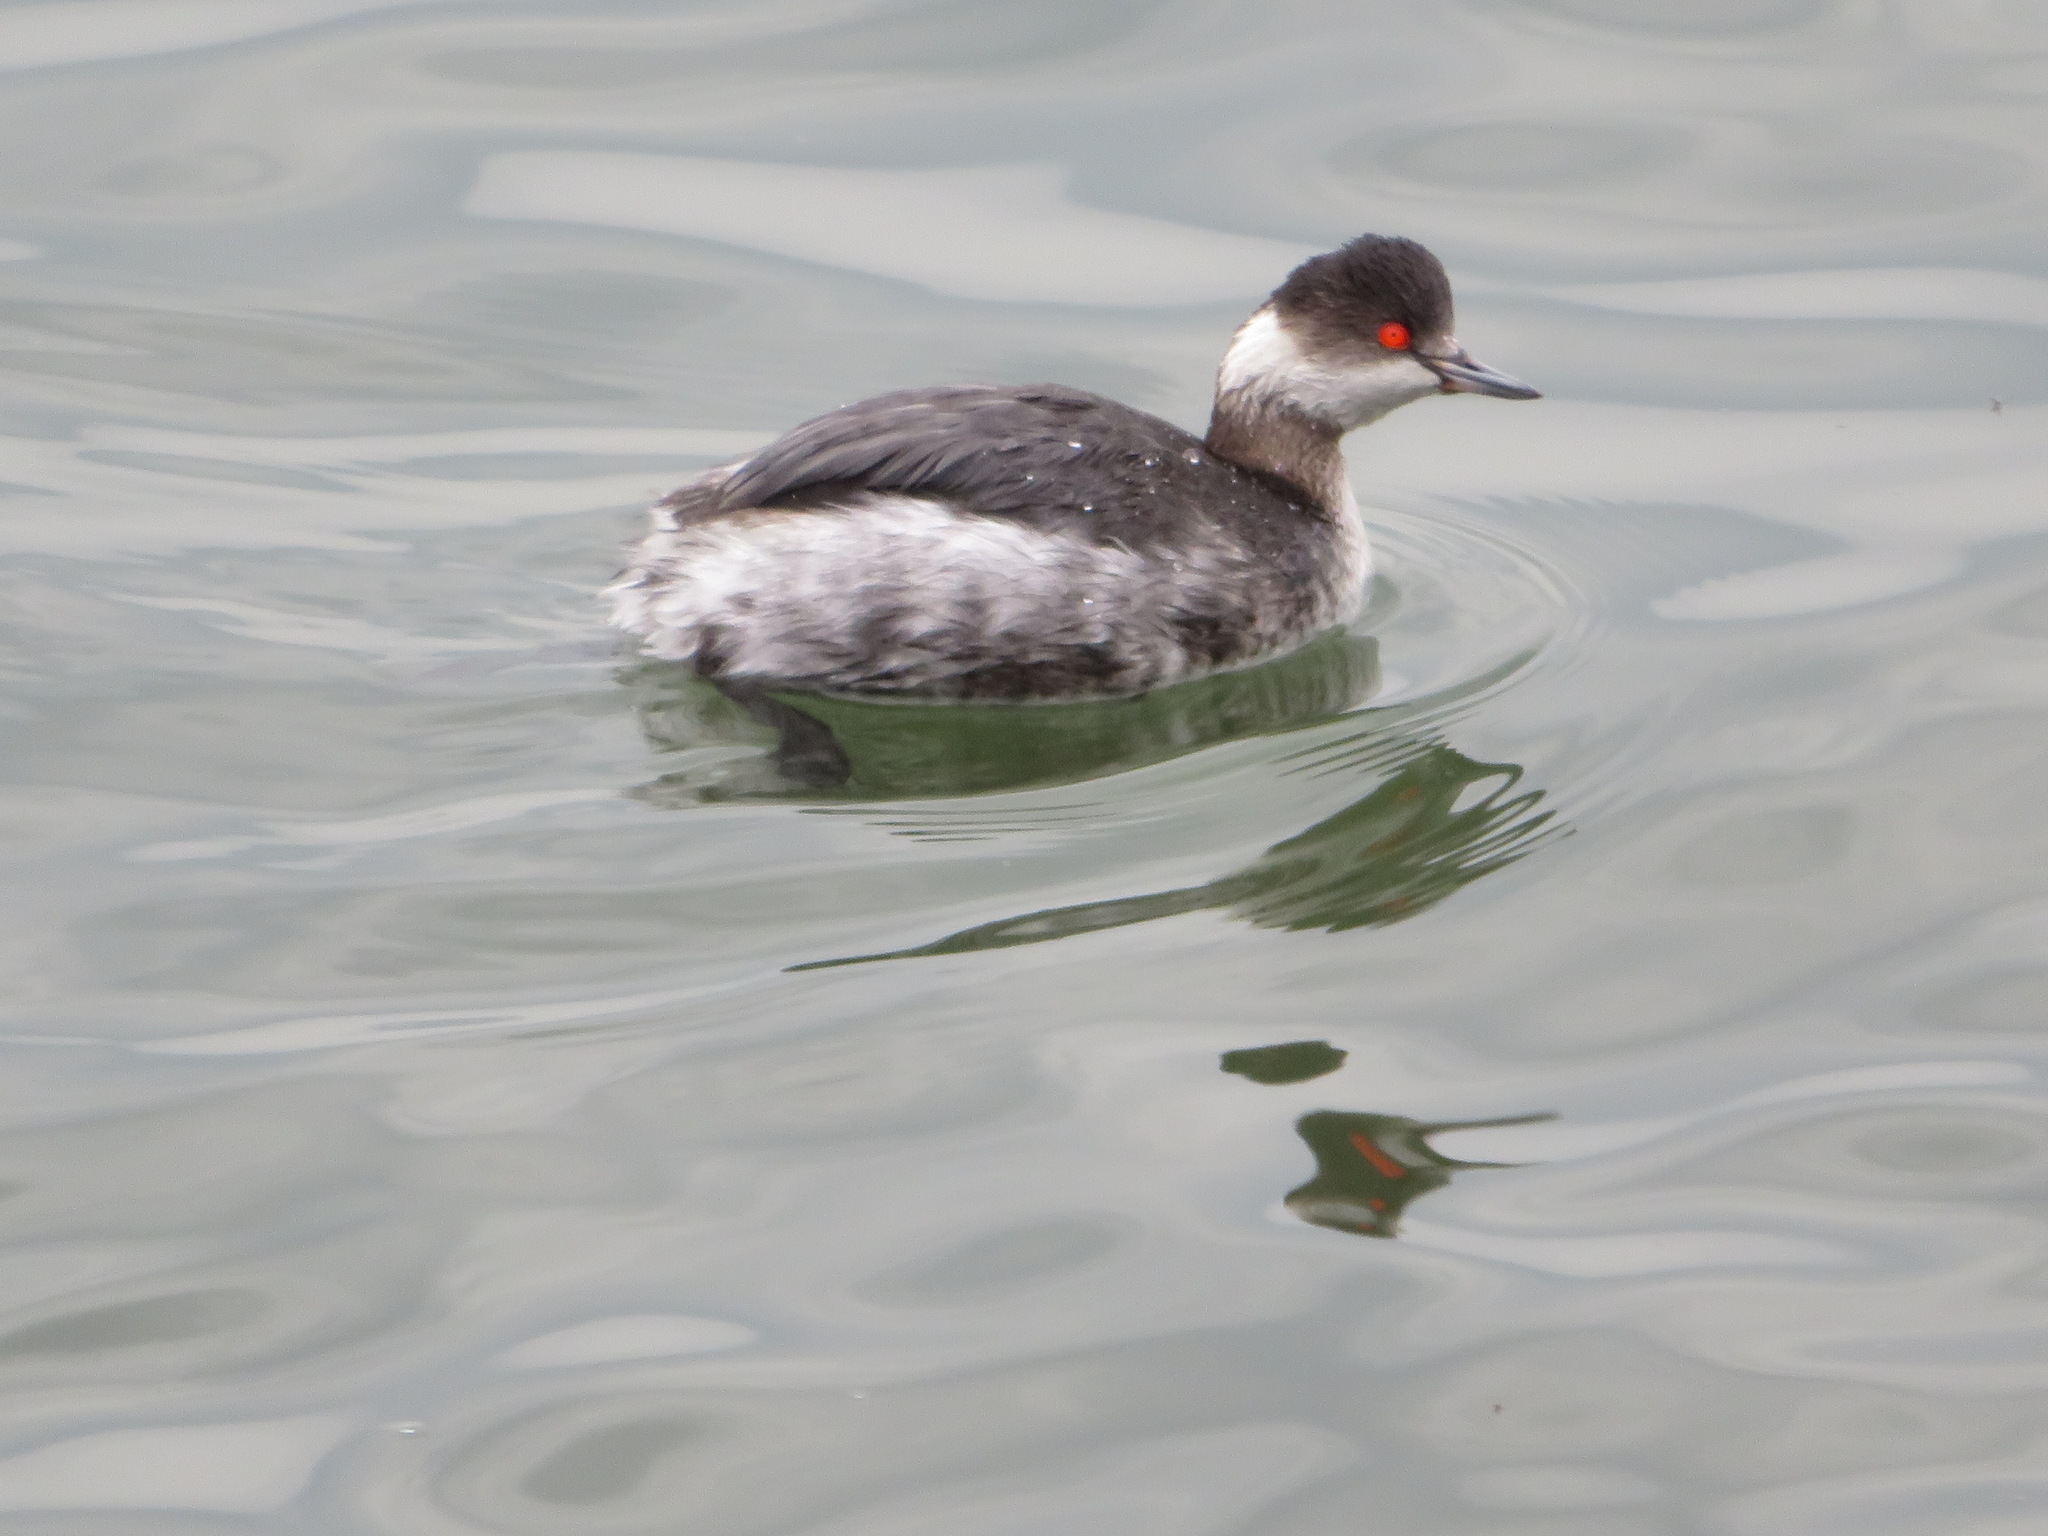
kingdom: Animalia
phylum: Chordata
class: Aves
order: Podicipediformes
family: Podicipedidae
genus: Podiceps
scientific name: Podiceps nigricollis
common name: Black-necked grebe
